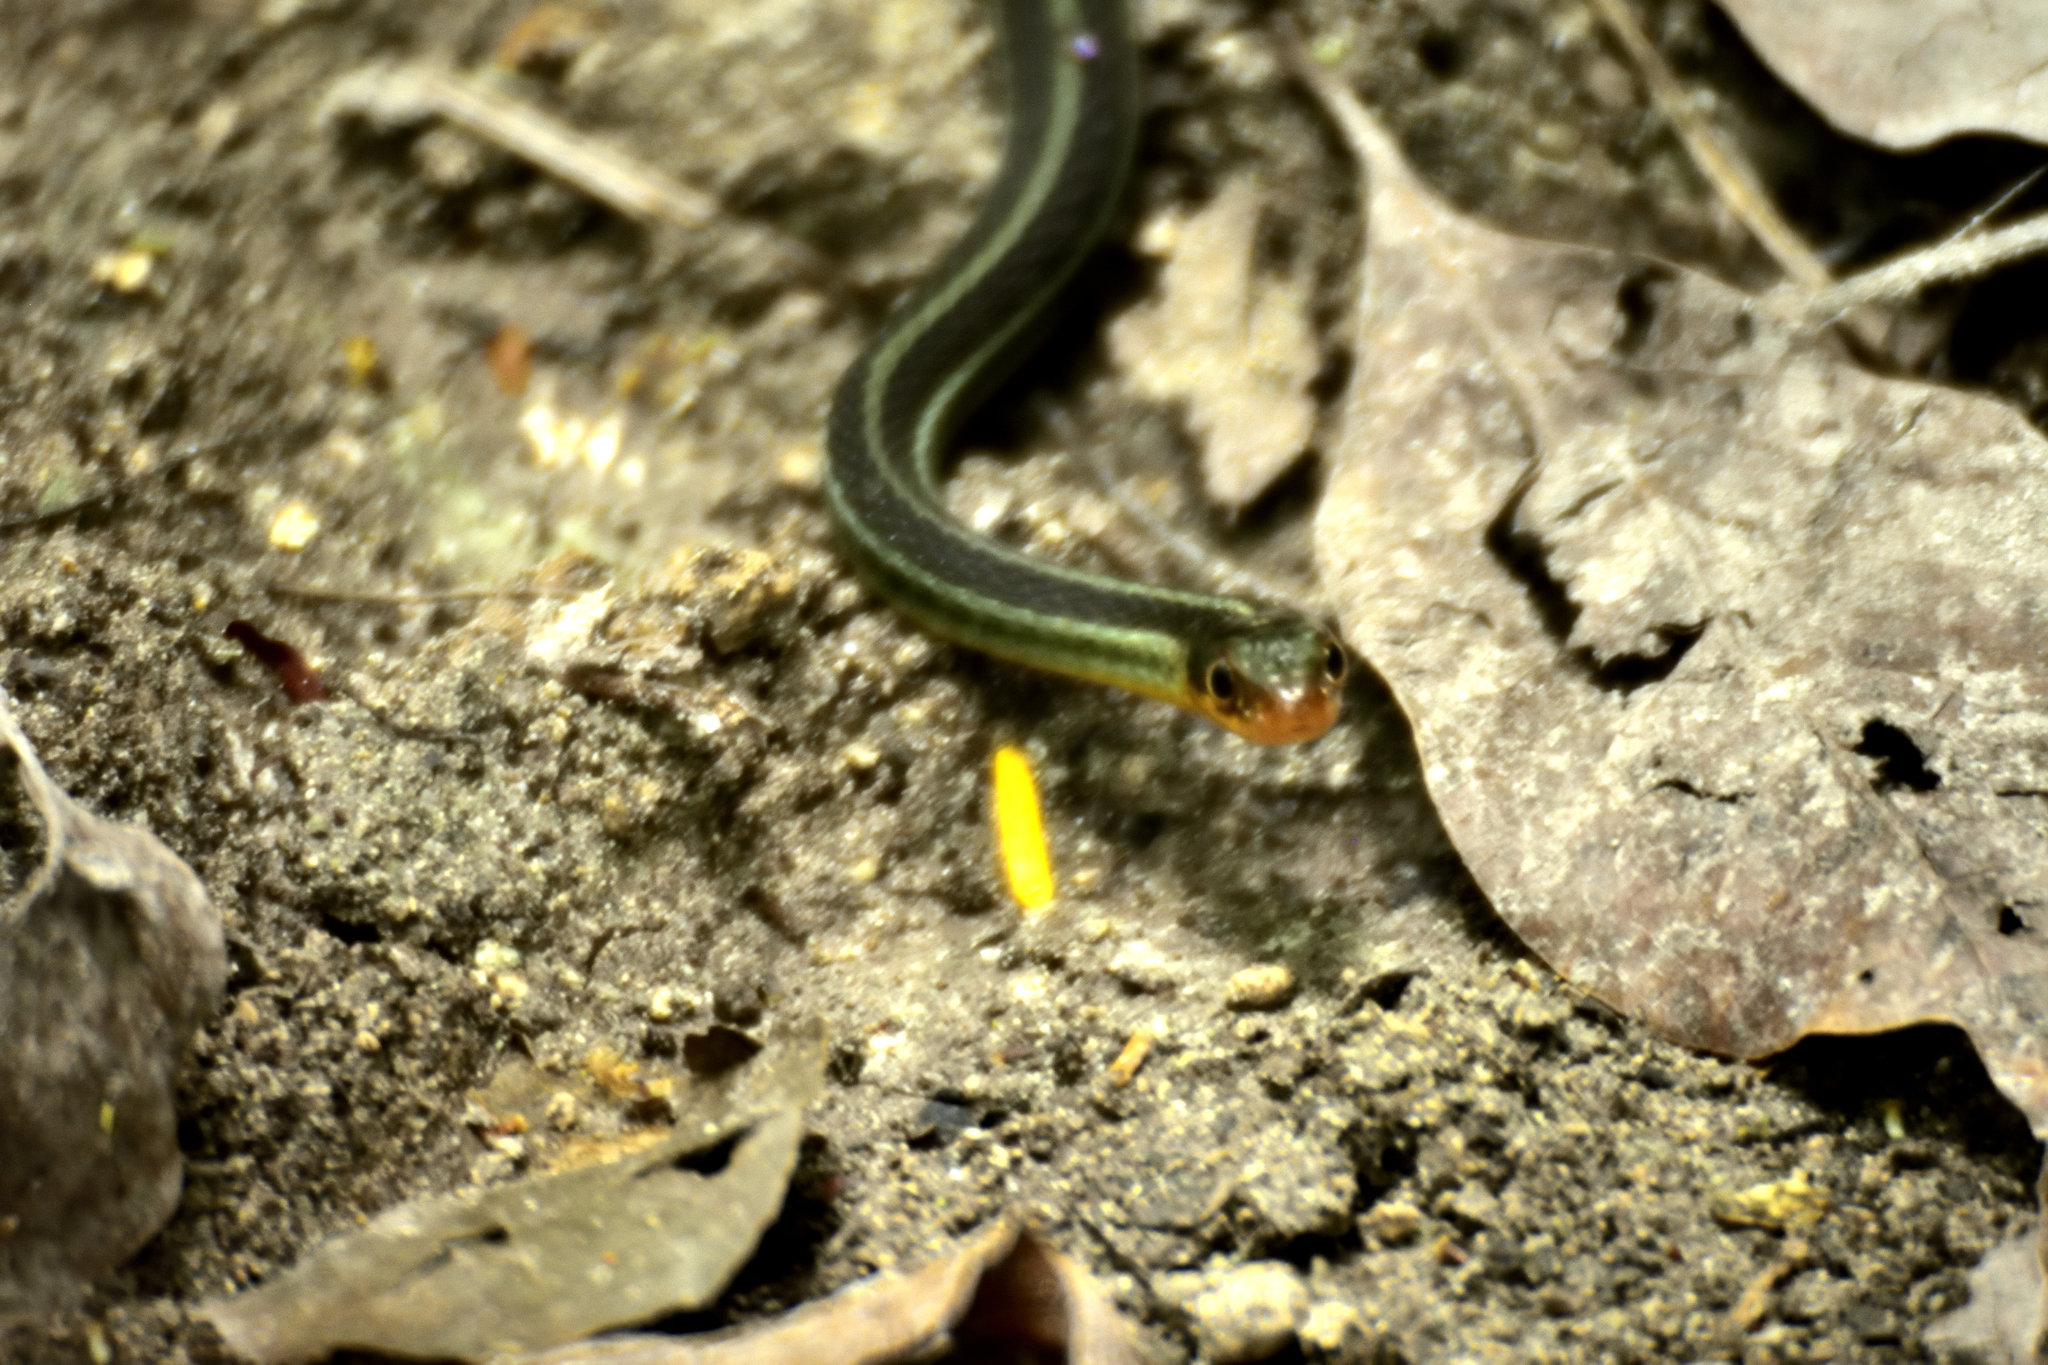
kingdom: Animalia
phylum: Chordata
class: Squamata
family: Colubridae
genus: Thamnophis
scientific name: Thamnophis proximus
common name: Western ribbon snake
